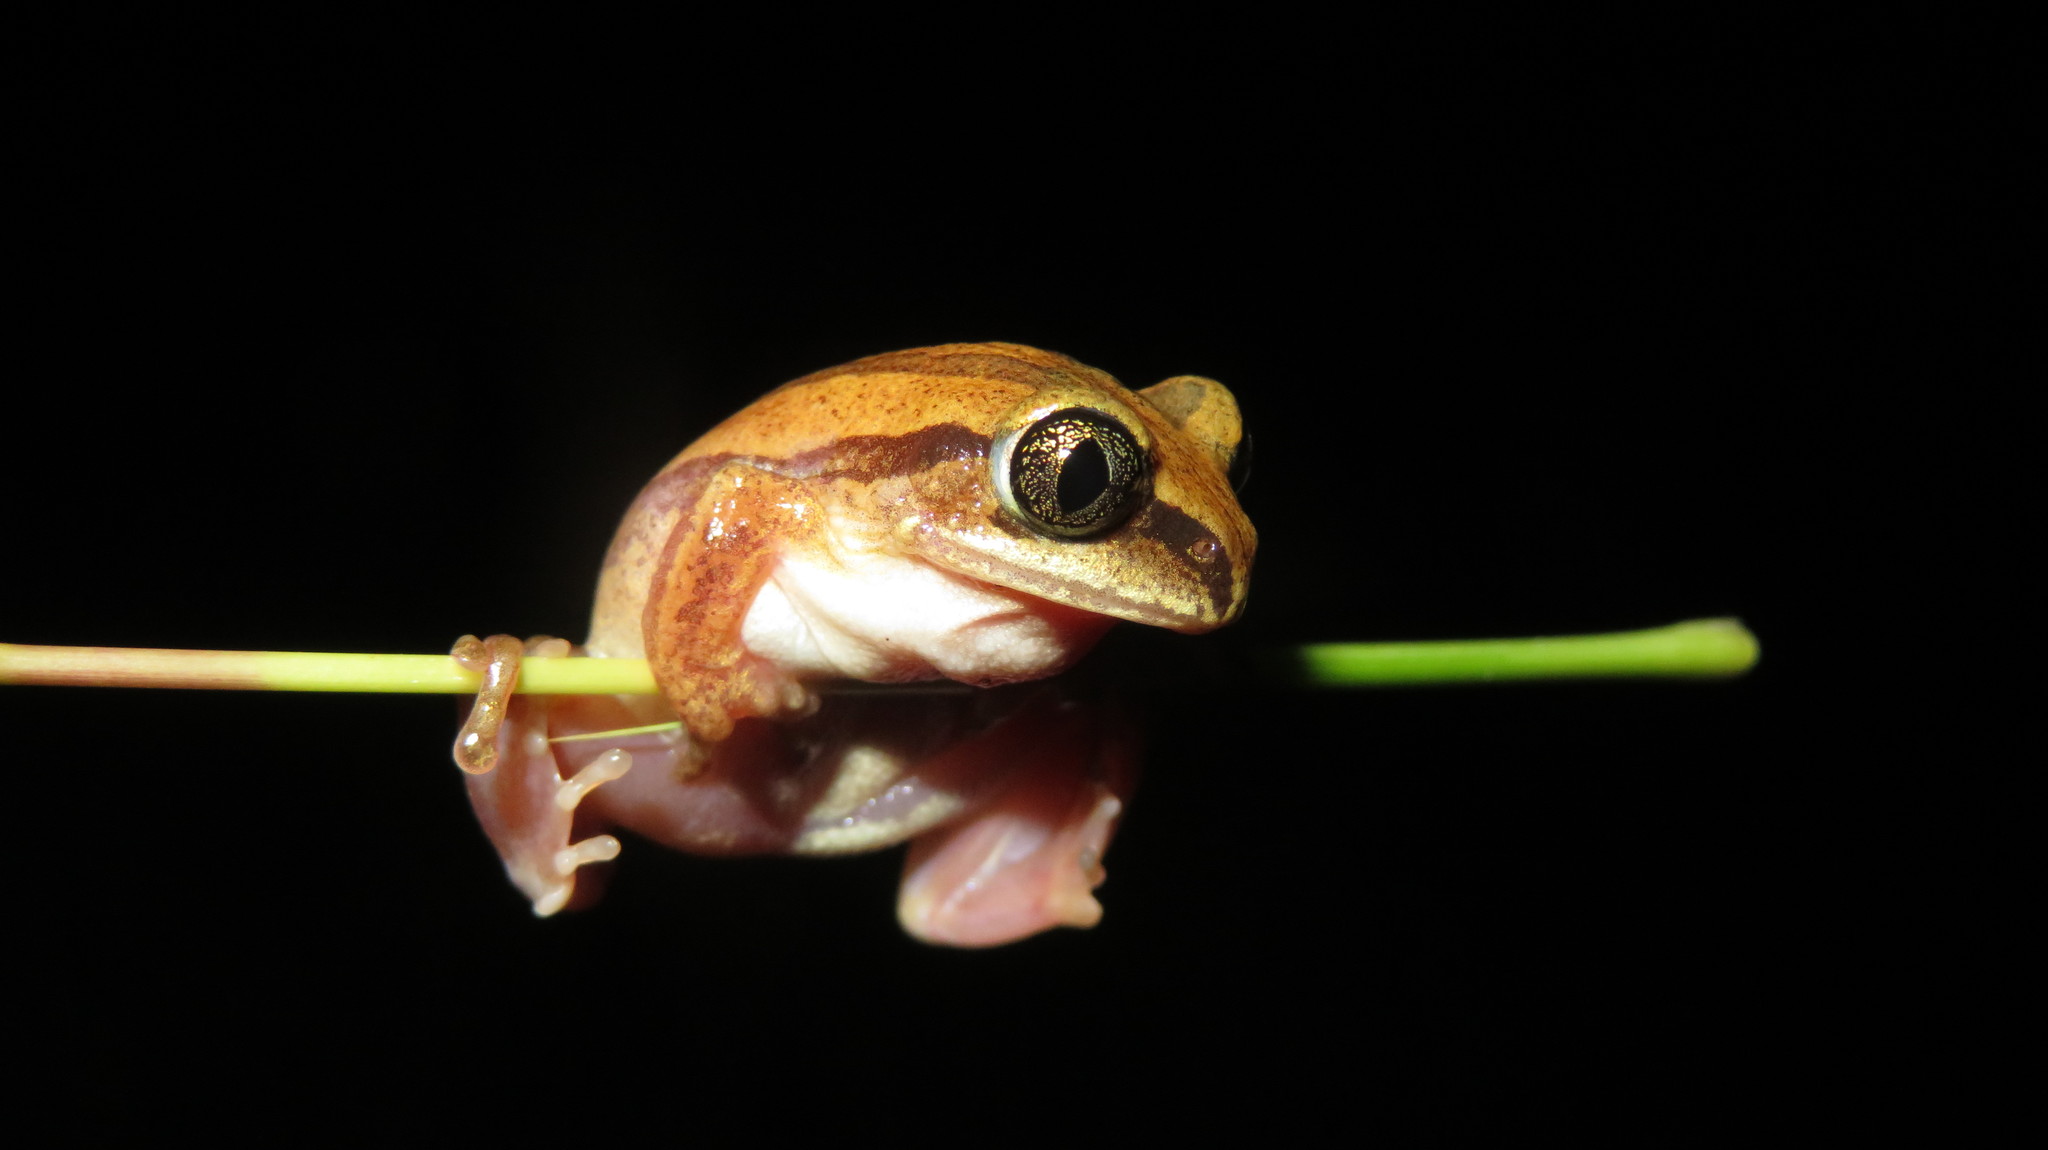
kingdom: Animalia
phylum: Chordata
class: Amphibia
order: Anura
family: Arthroleptidae
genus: Leptopelis
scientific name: Leptopelis argenteus
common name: Broadley's tree frog
